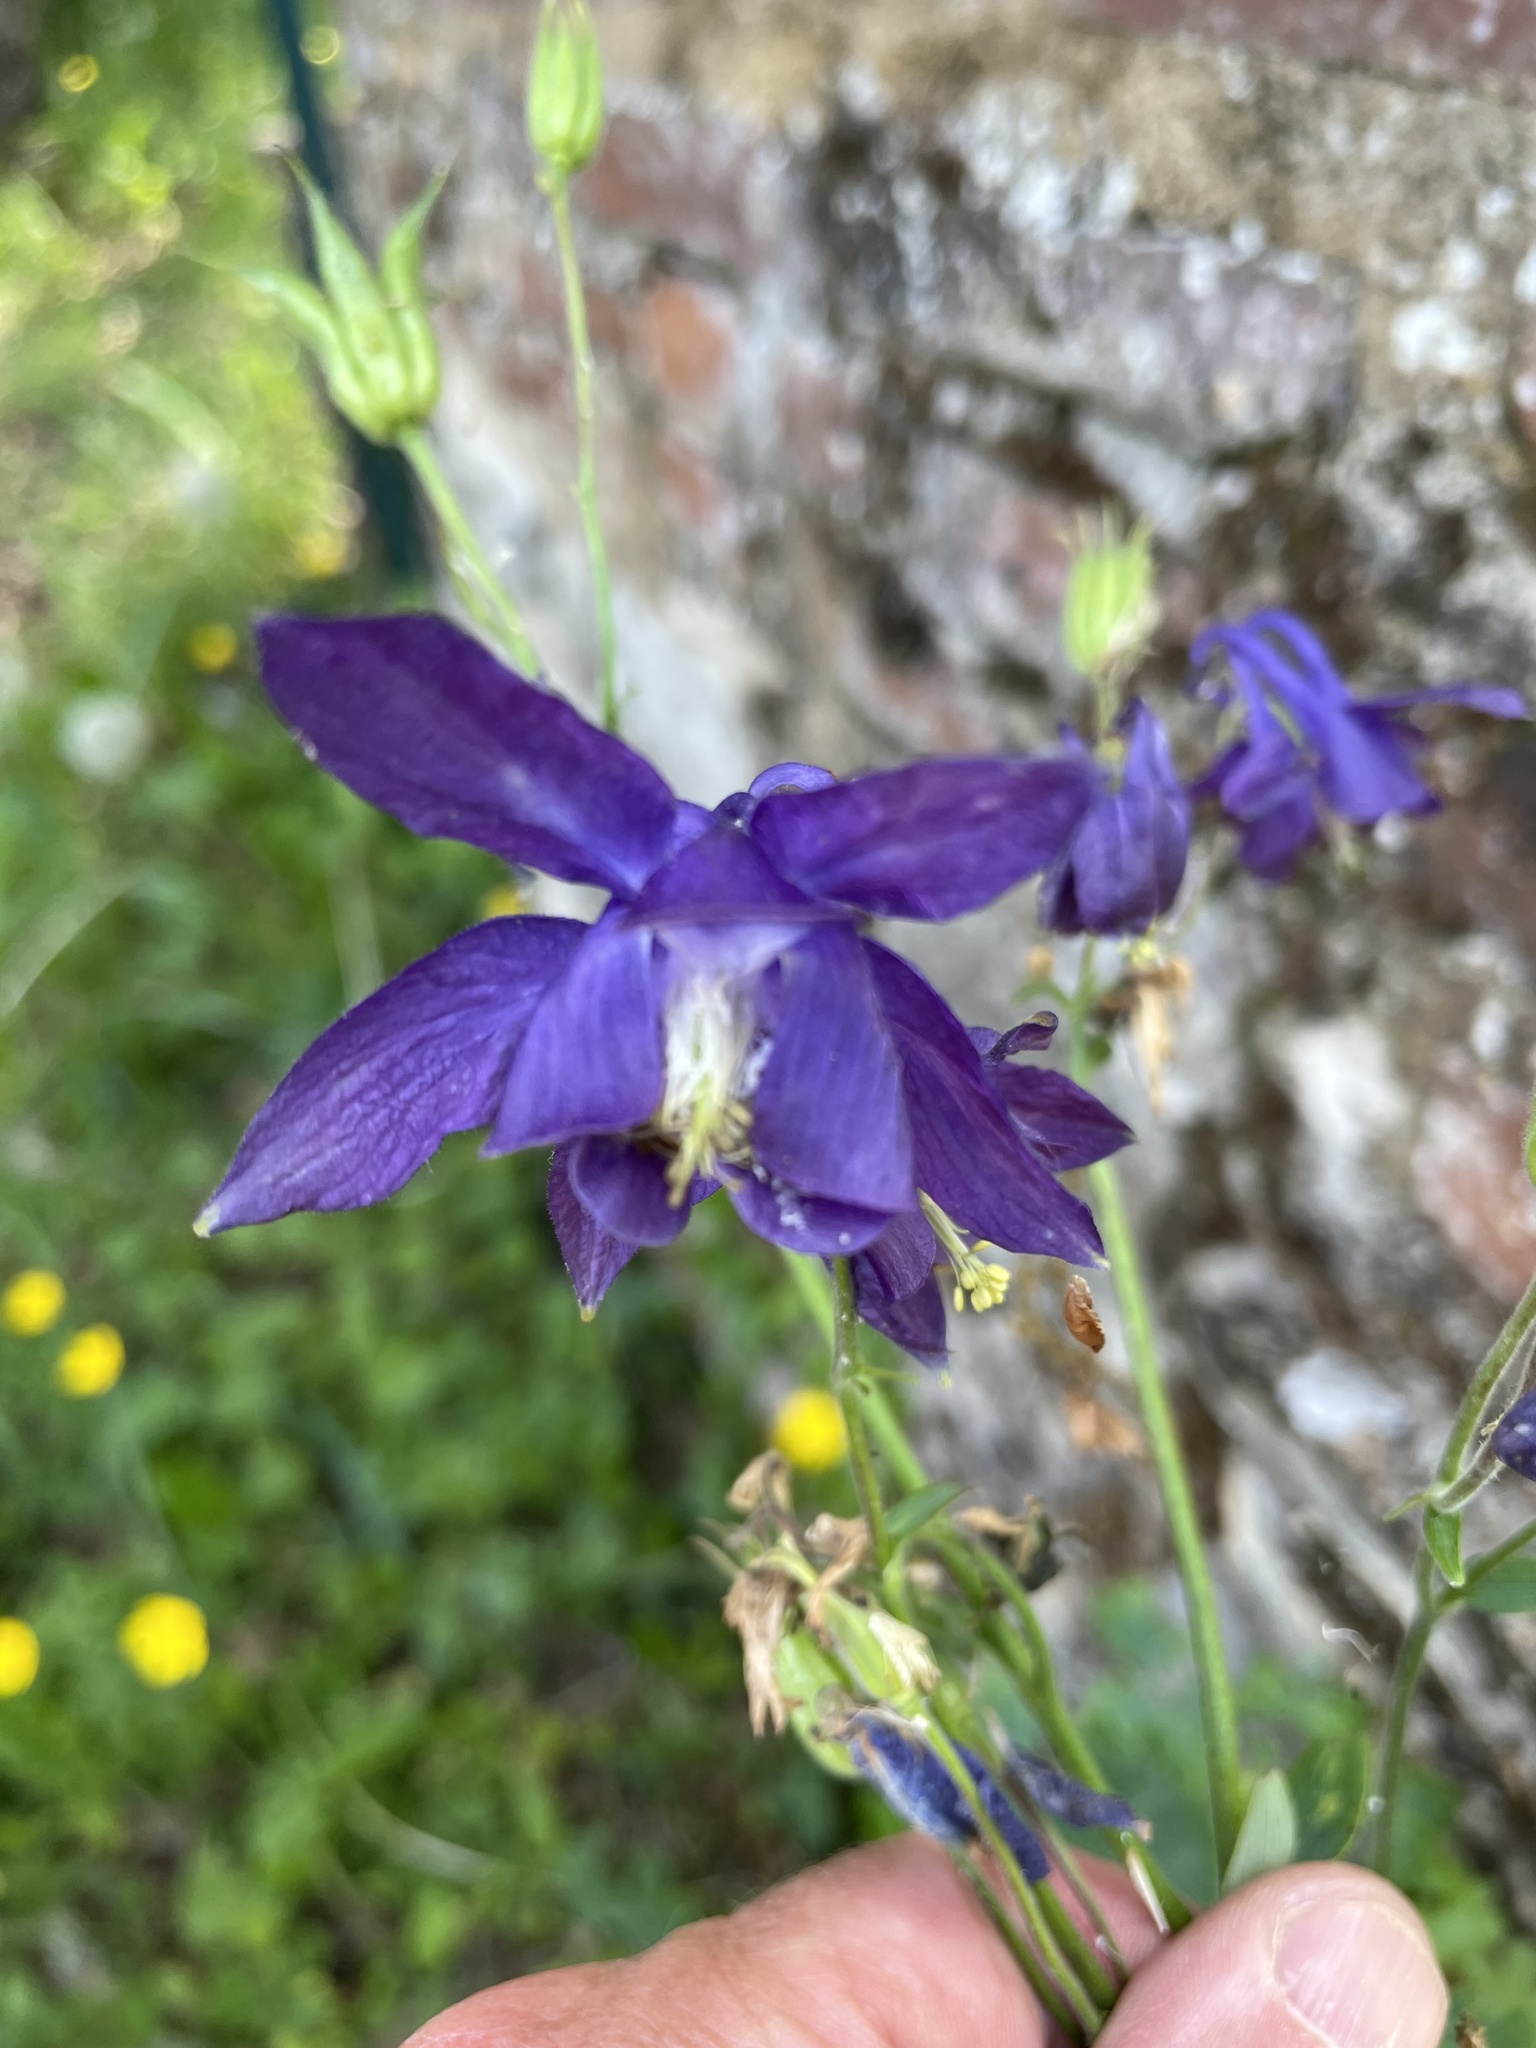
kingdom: Plantae
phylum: Tracheophyta
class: Magnoliopsida
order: Ranunculales
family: Ranunculaceae
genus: Aquilegia
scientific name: Aquilegia vulgaris
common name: Columbine
